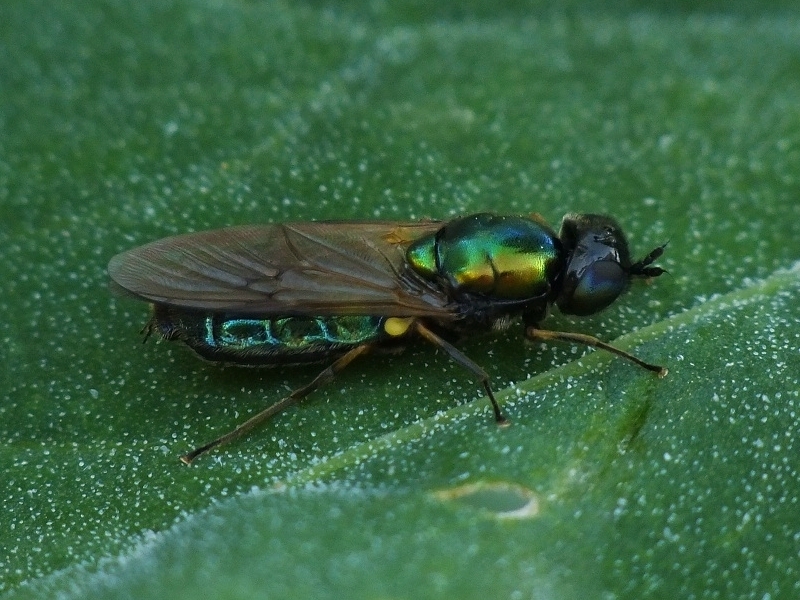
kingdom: Animalia
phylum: Arthropoda
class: Insecta
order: Diptera
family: Stratiomyidae
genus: Chloromyia
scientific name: Chloromyia formosa
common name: Soldier fly
